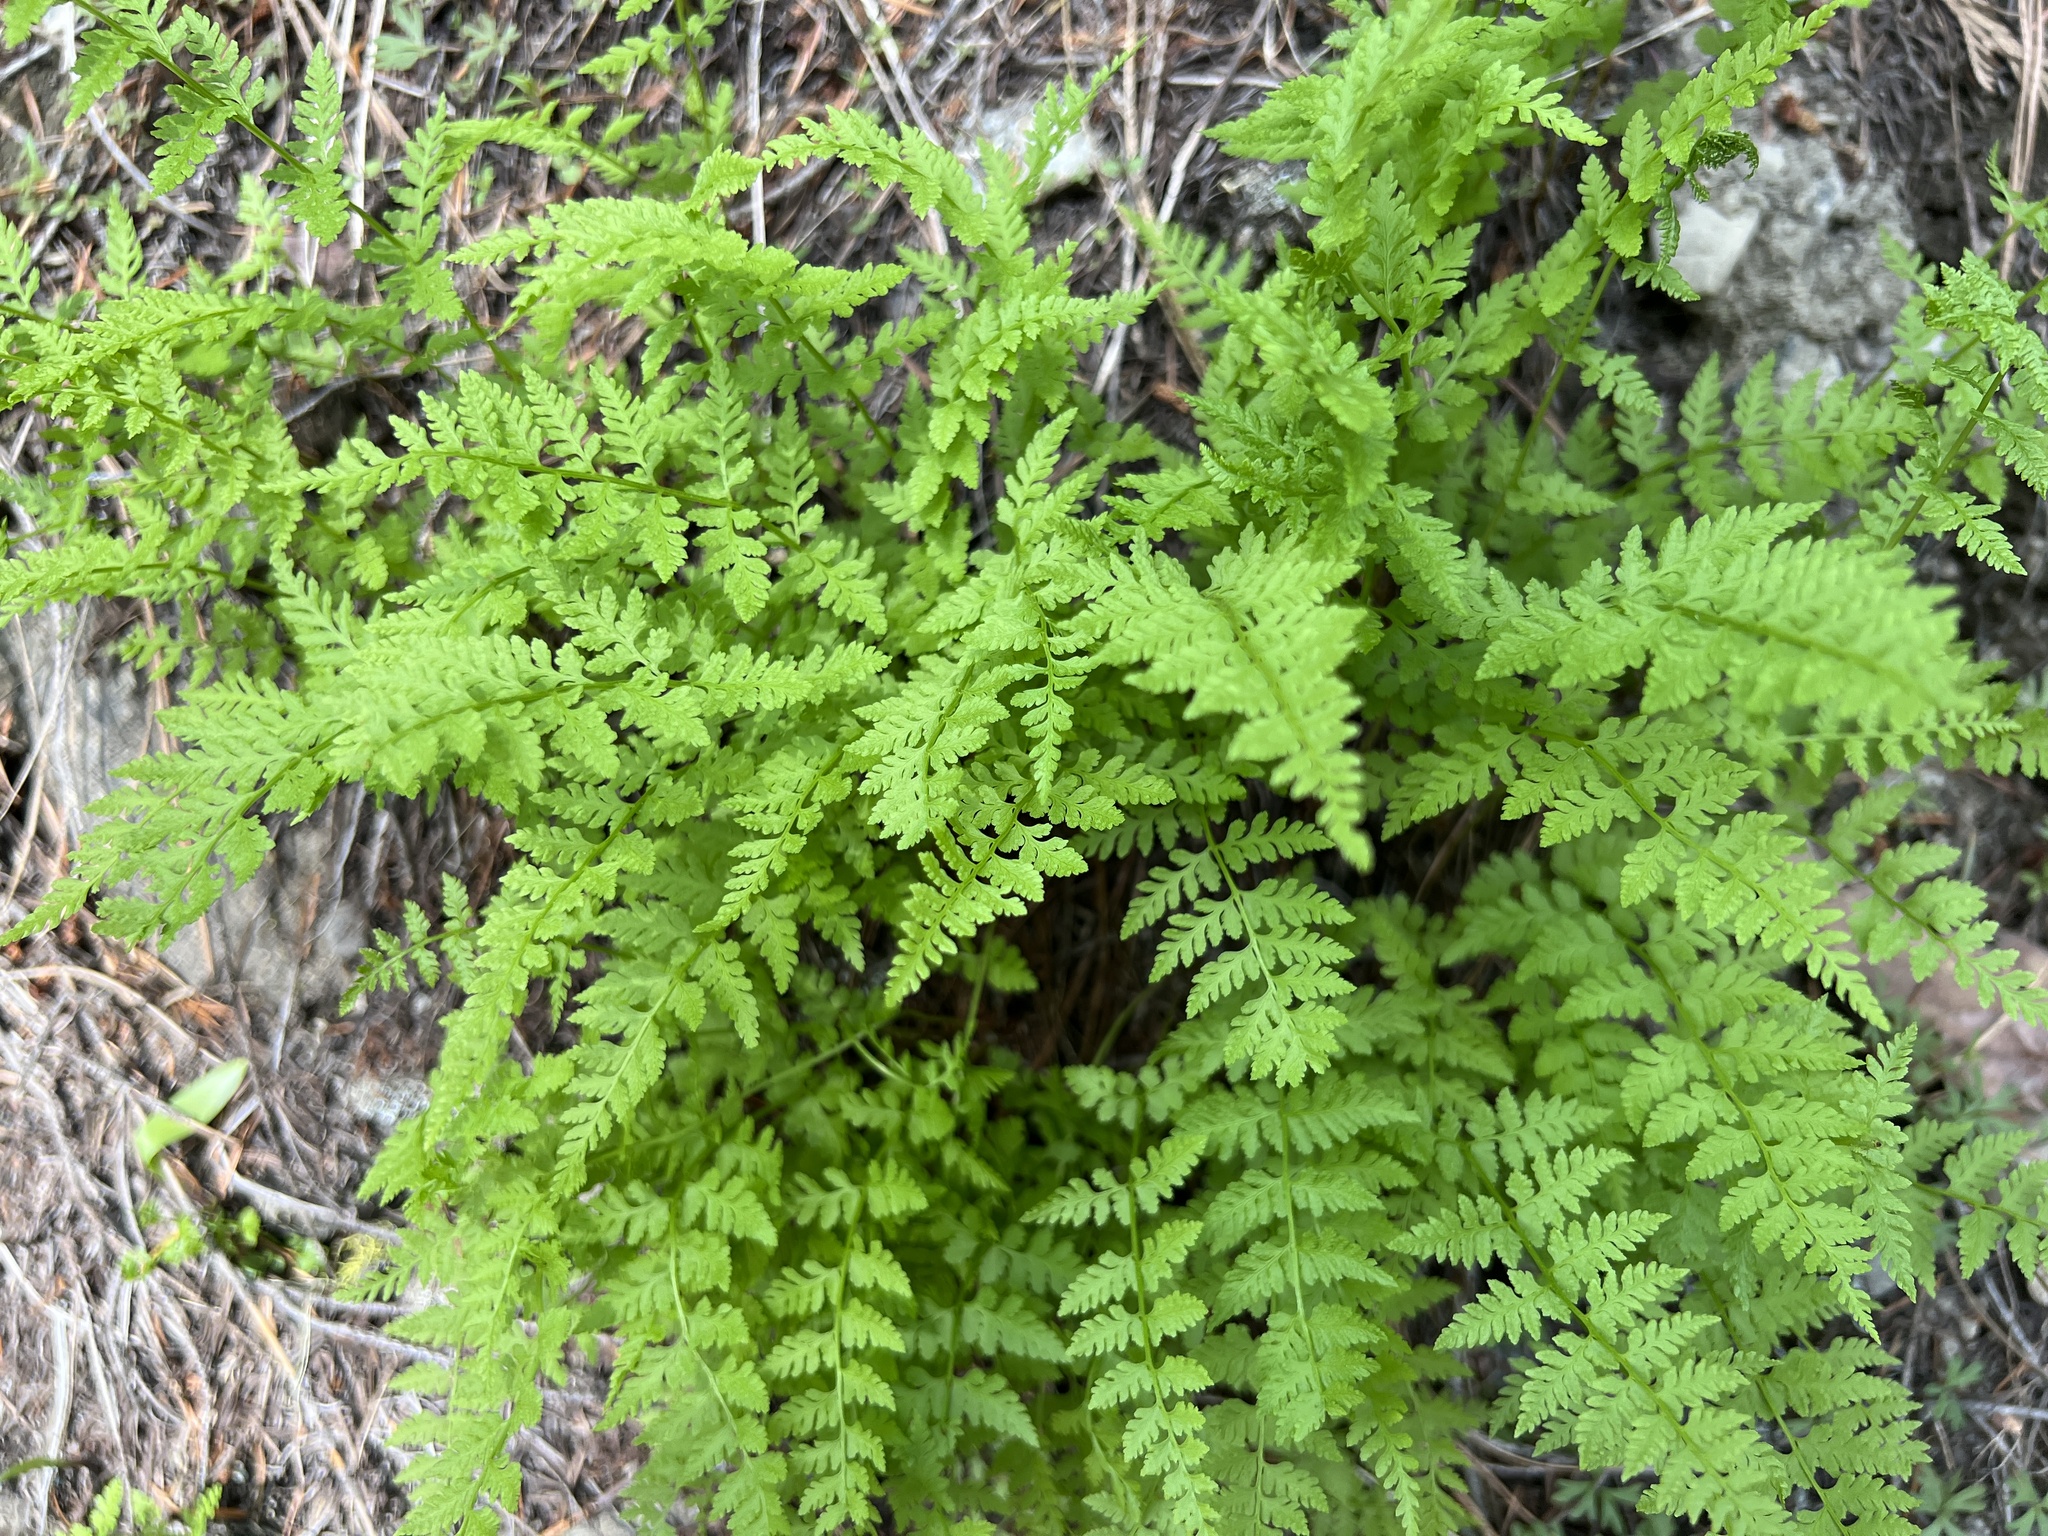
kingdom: Plantae
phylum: Tracheophyta
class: Polypodiopsida
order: Polypodiales
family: Cystopteridaceae
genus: Cystopteris
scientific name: Cystopteris fragilis
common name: Brittle bladder fern
